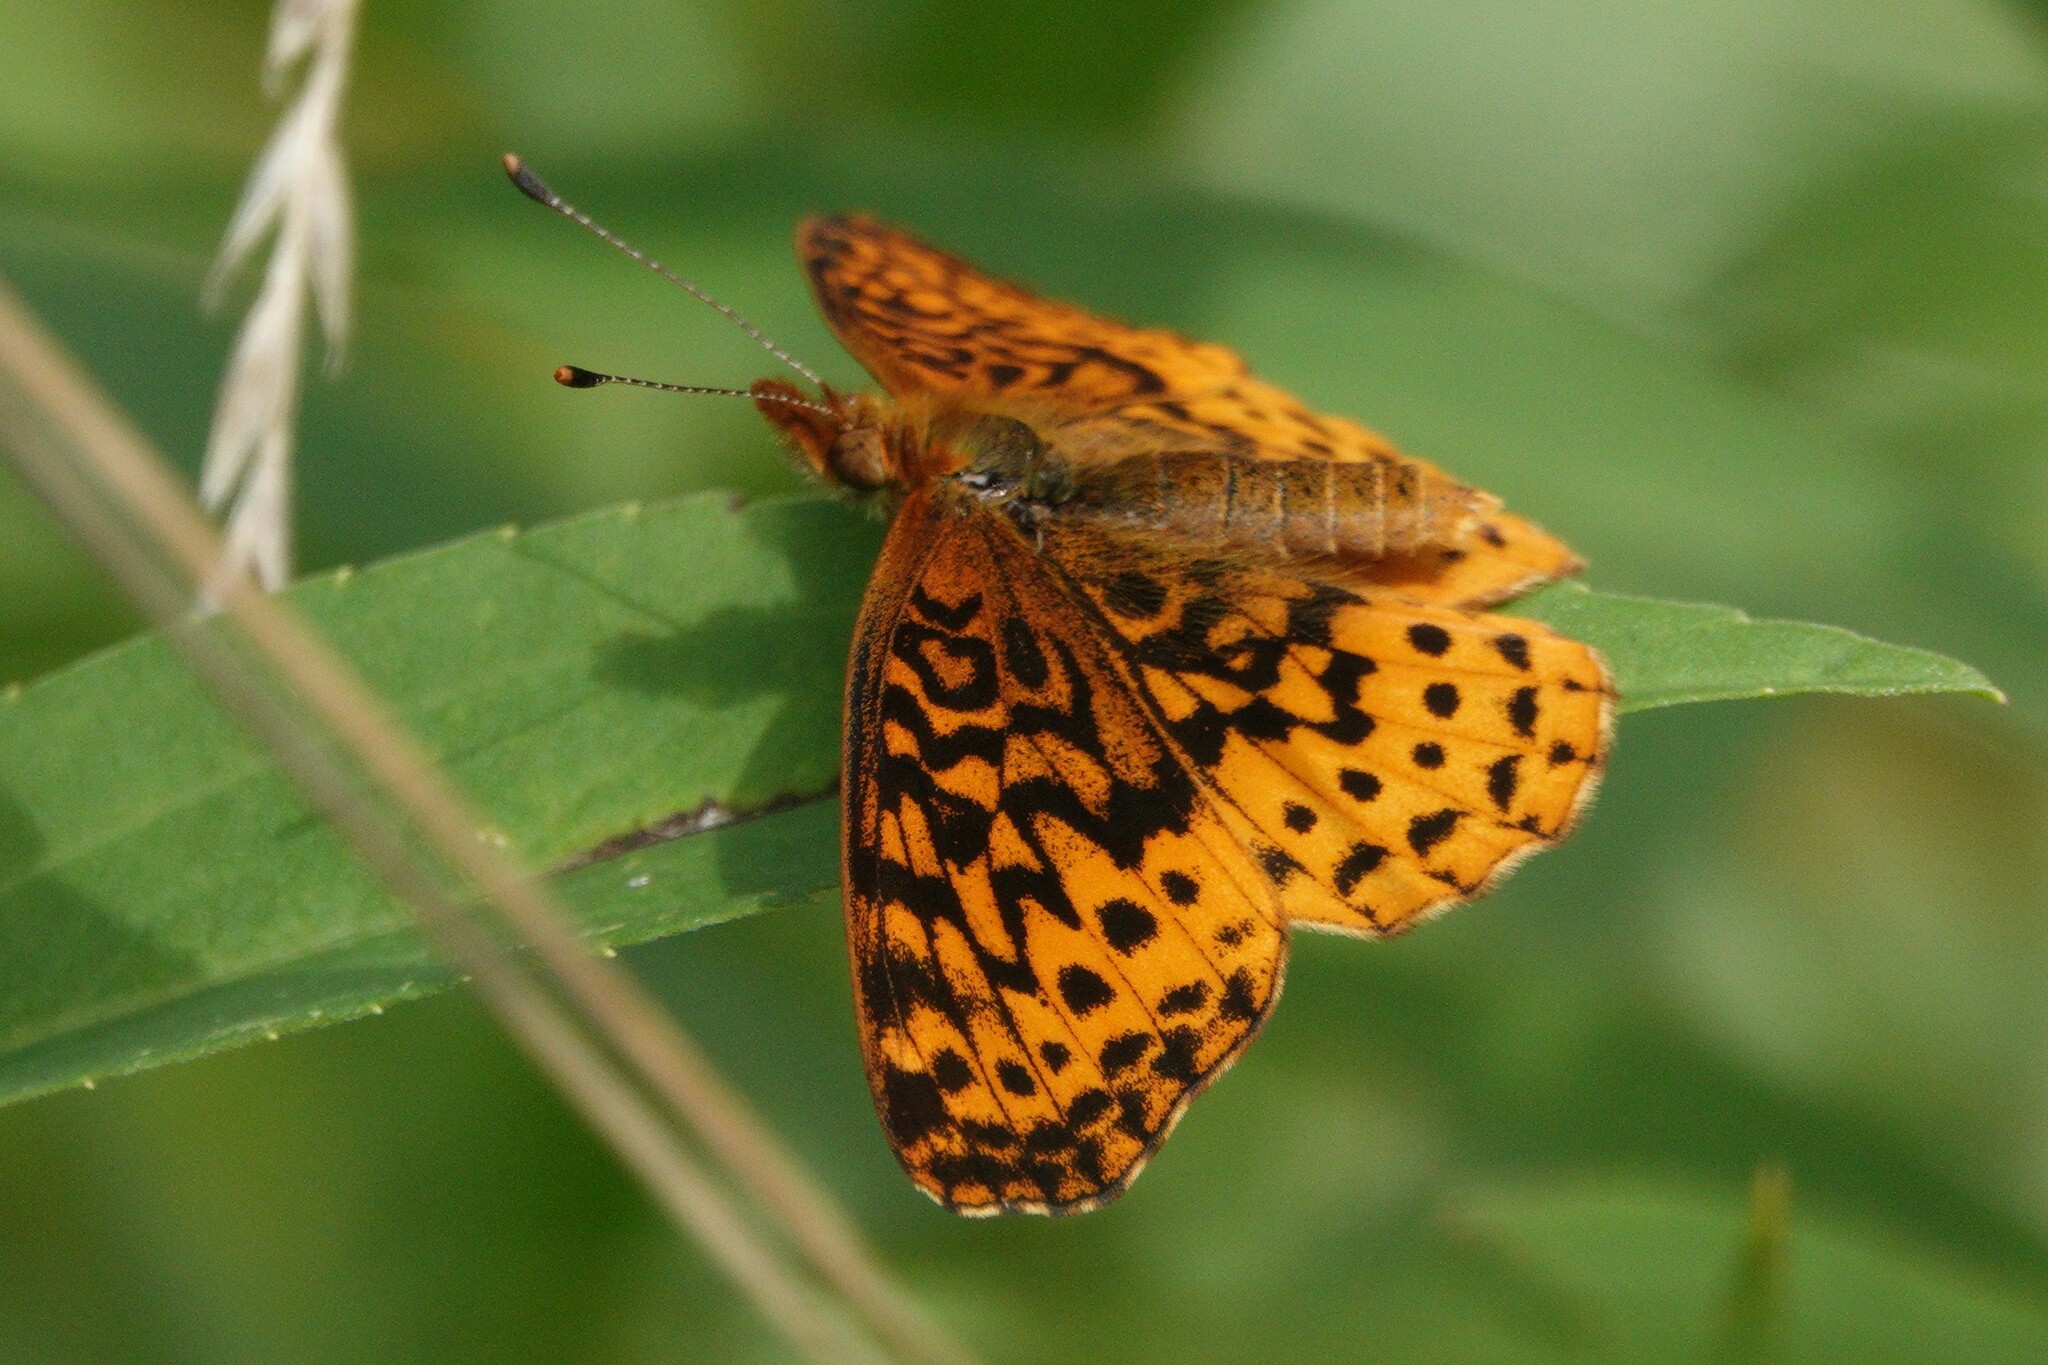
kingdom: Animalia
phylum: Arthropoda
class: Insecta
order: Lepidoptera
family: Nymphalidae
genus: Clossiana
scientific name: Clossiana toddi
